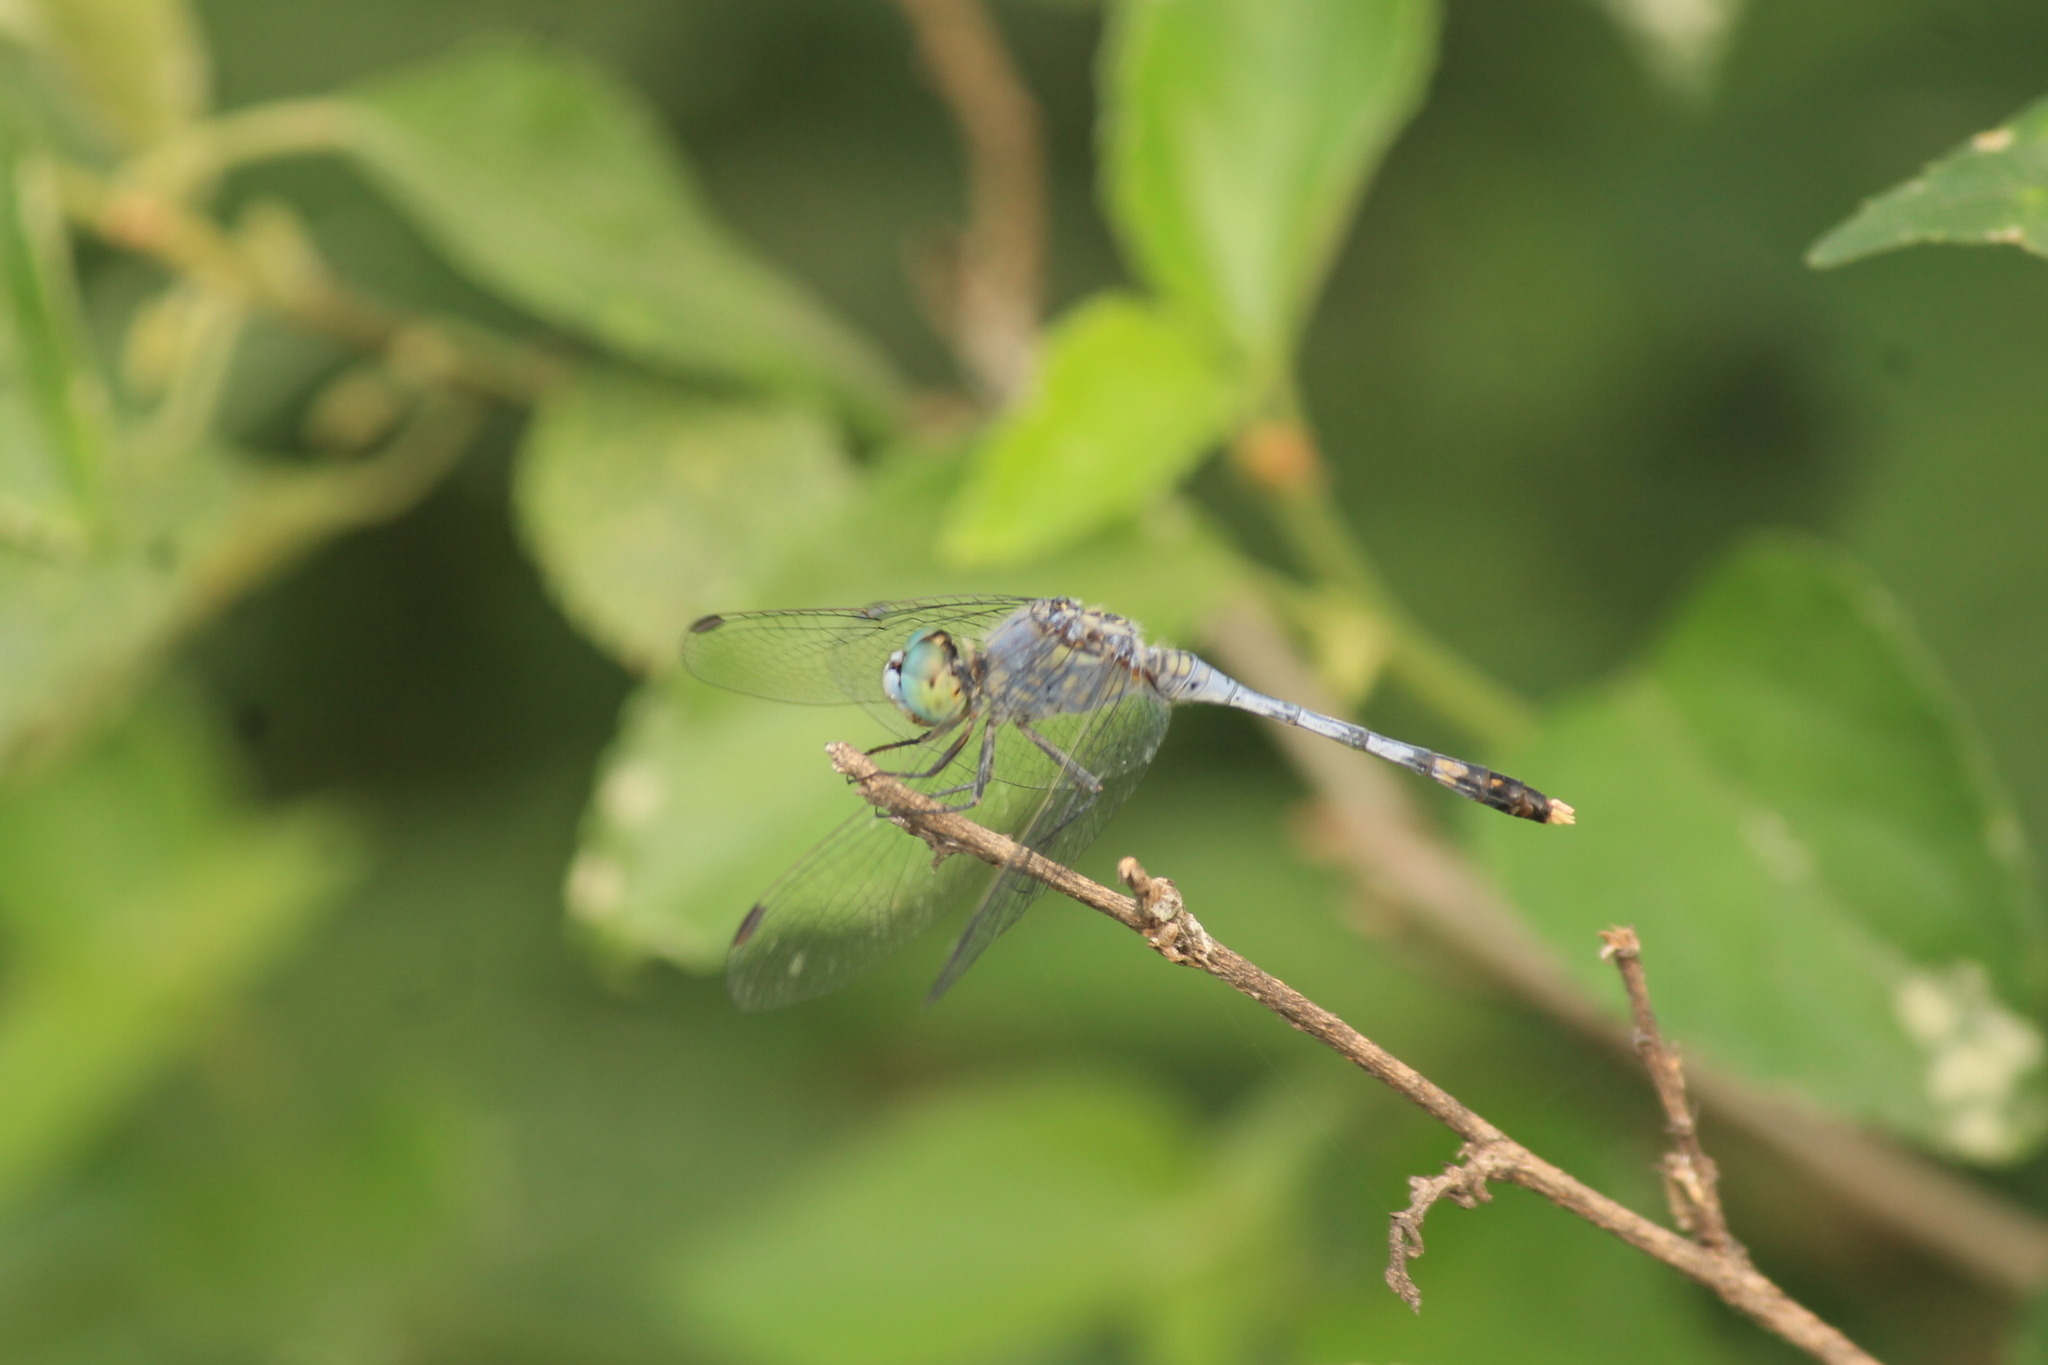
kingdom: Animalia
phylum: Arthropoda
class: Insecta
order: Odonata
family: Libellulidae
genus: Diplacodes
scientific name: Diplacodes trivialis
